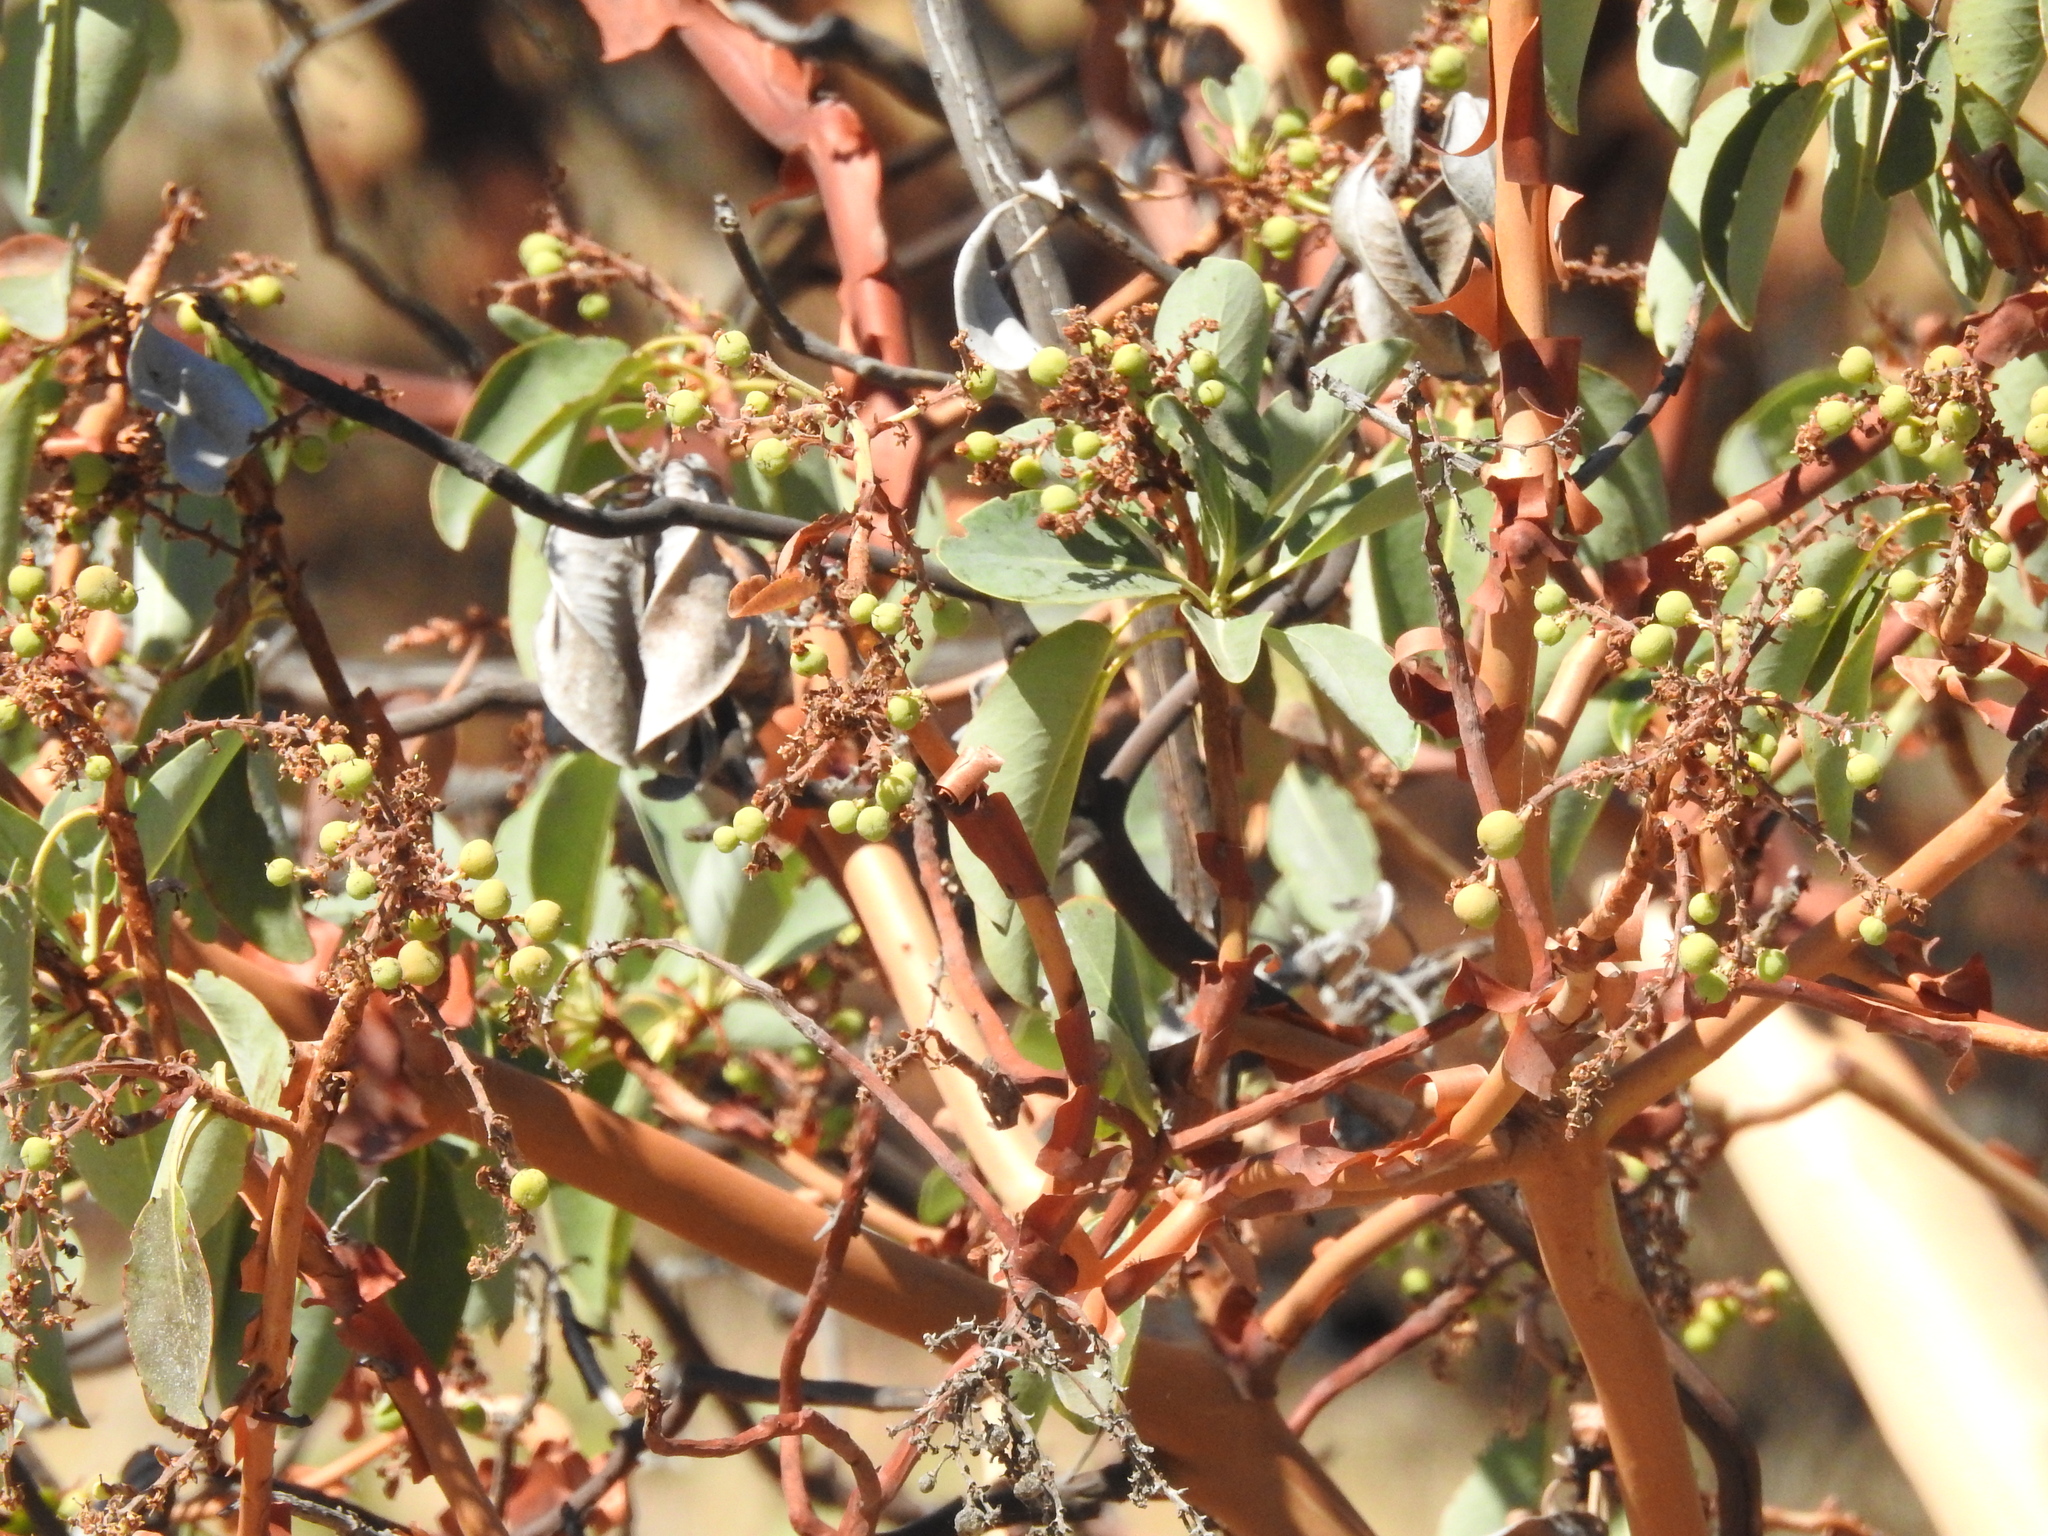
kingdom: Plantae
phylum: Tracheophyta
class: Magnoliopsida
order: Ericales
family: Ericaceae
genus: Arbutus
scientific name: Arbutus menziesii
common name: Pacific madrone
